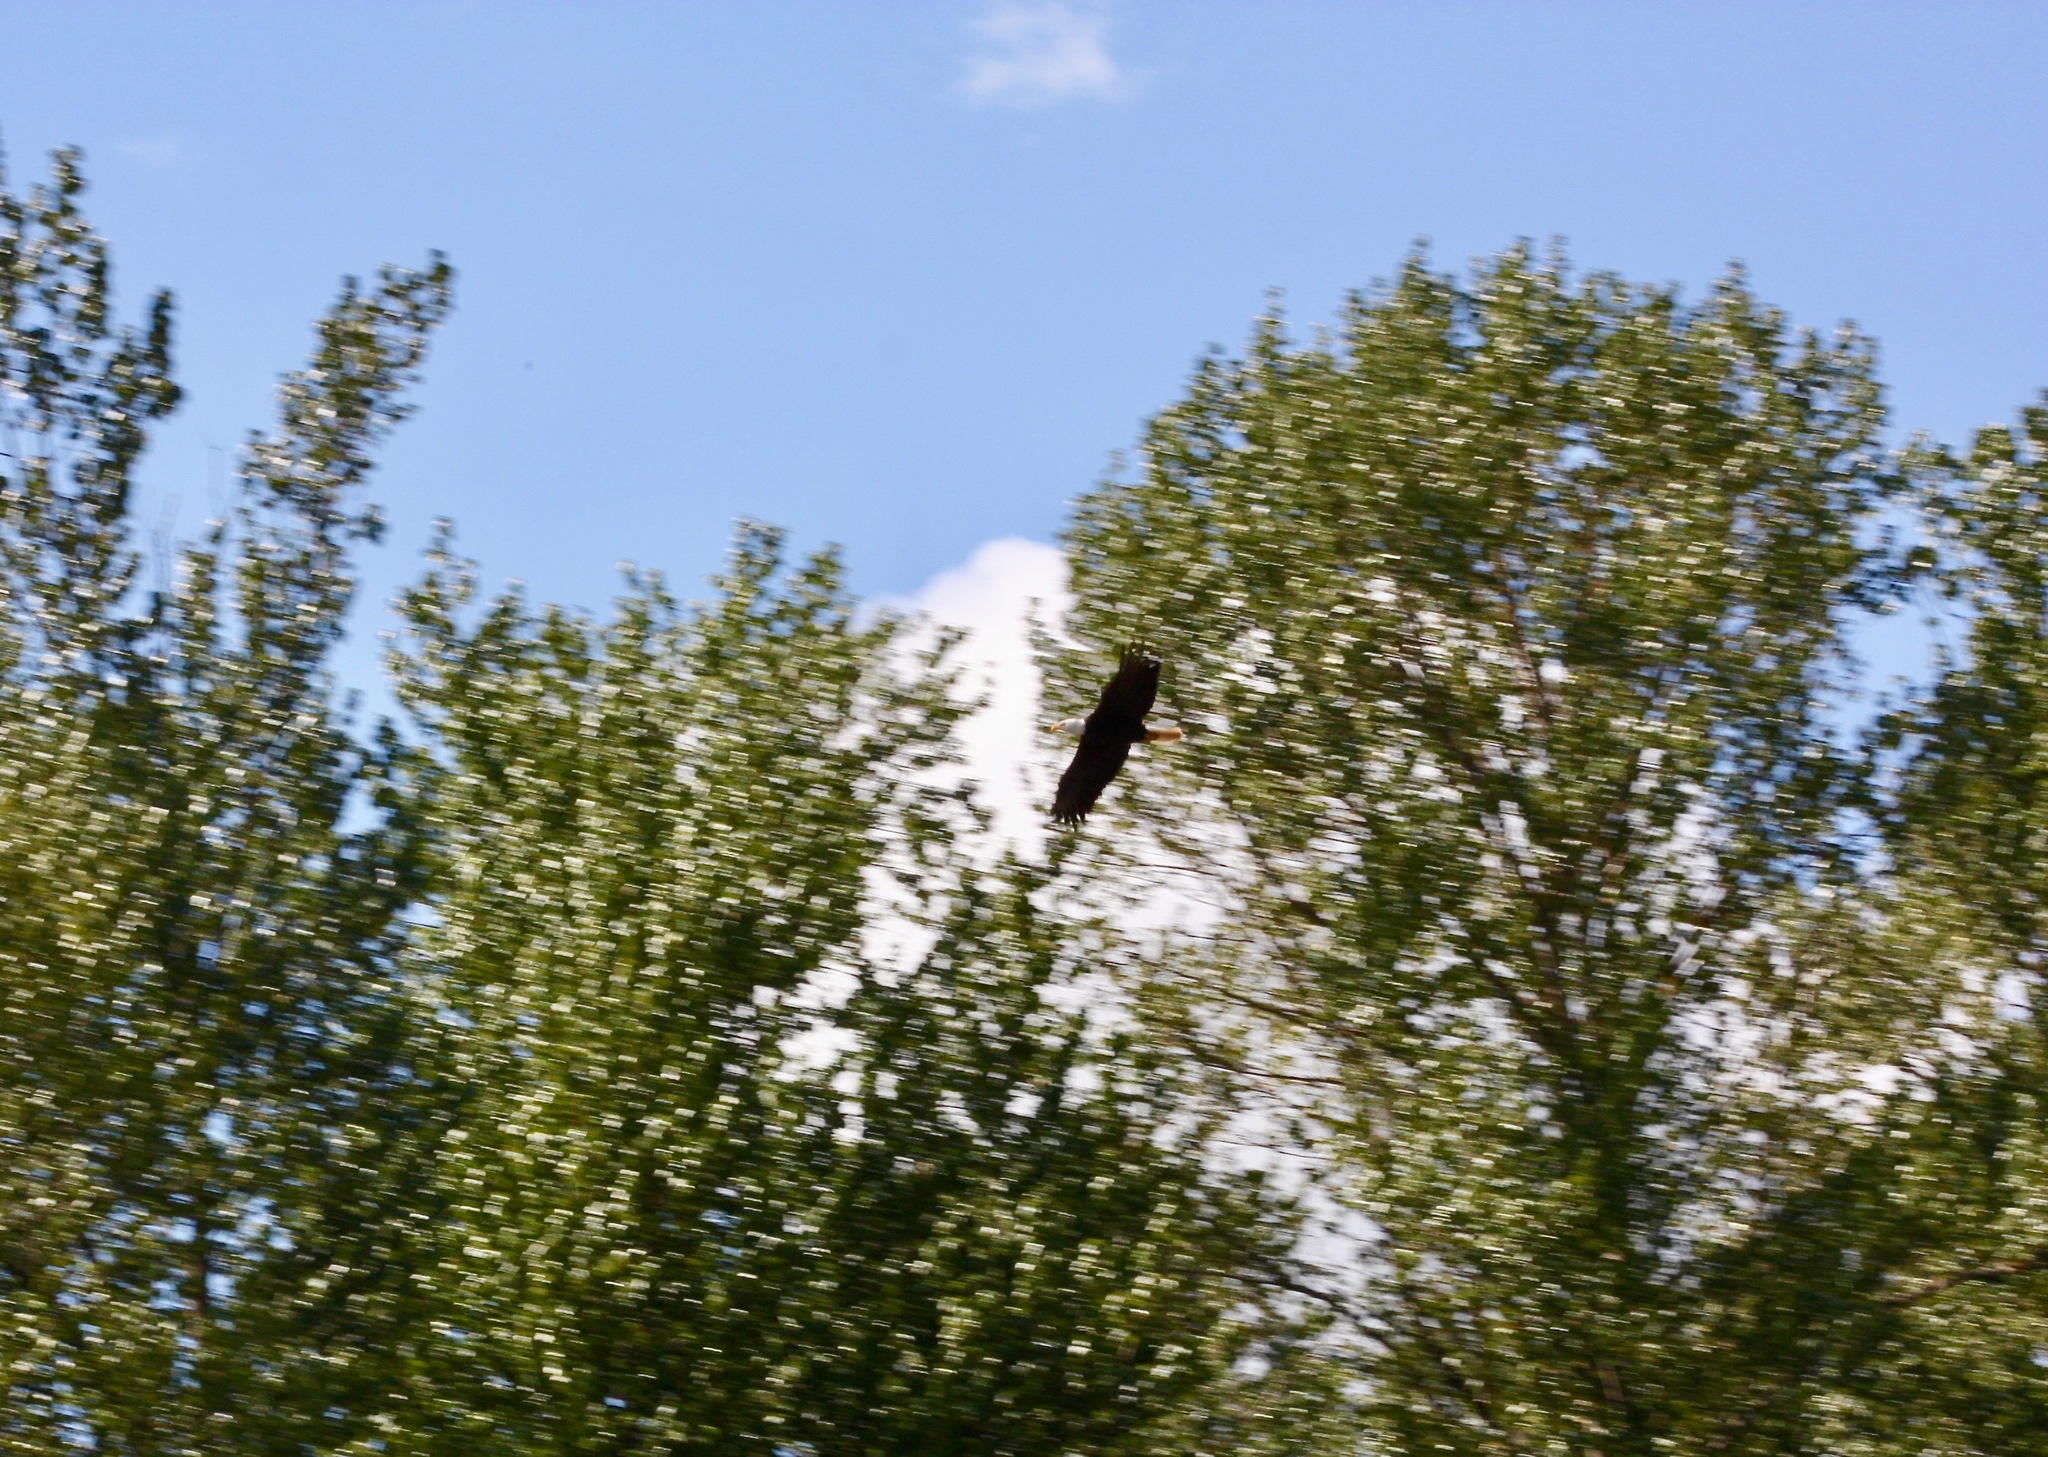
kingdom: Animalia
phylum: Chordata
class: Aves
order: Accipitriformes
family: Accipitridae
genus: Haliaeetus
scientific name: Haliaeetus leucocephalus
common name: Bald eagle
